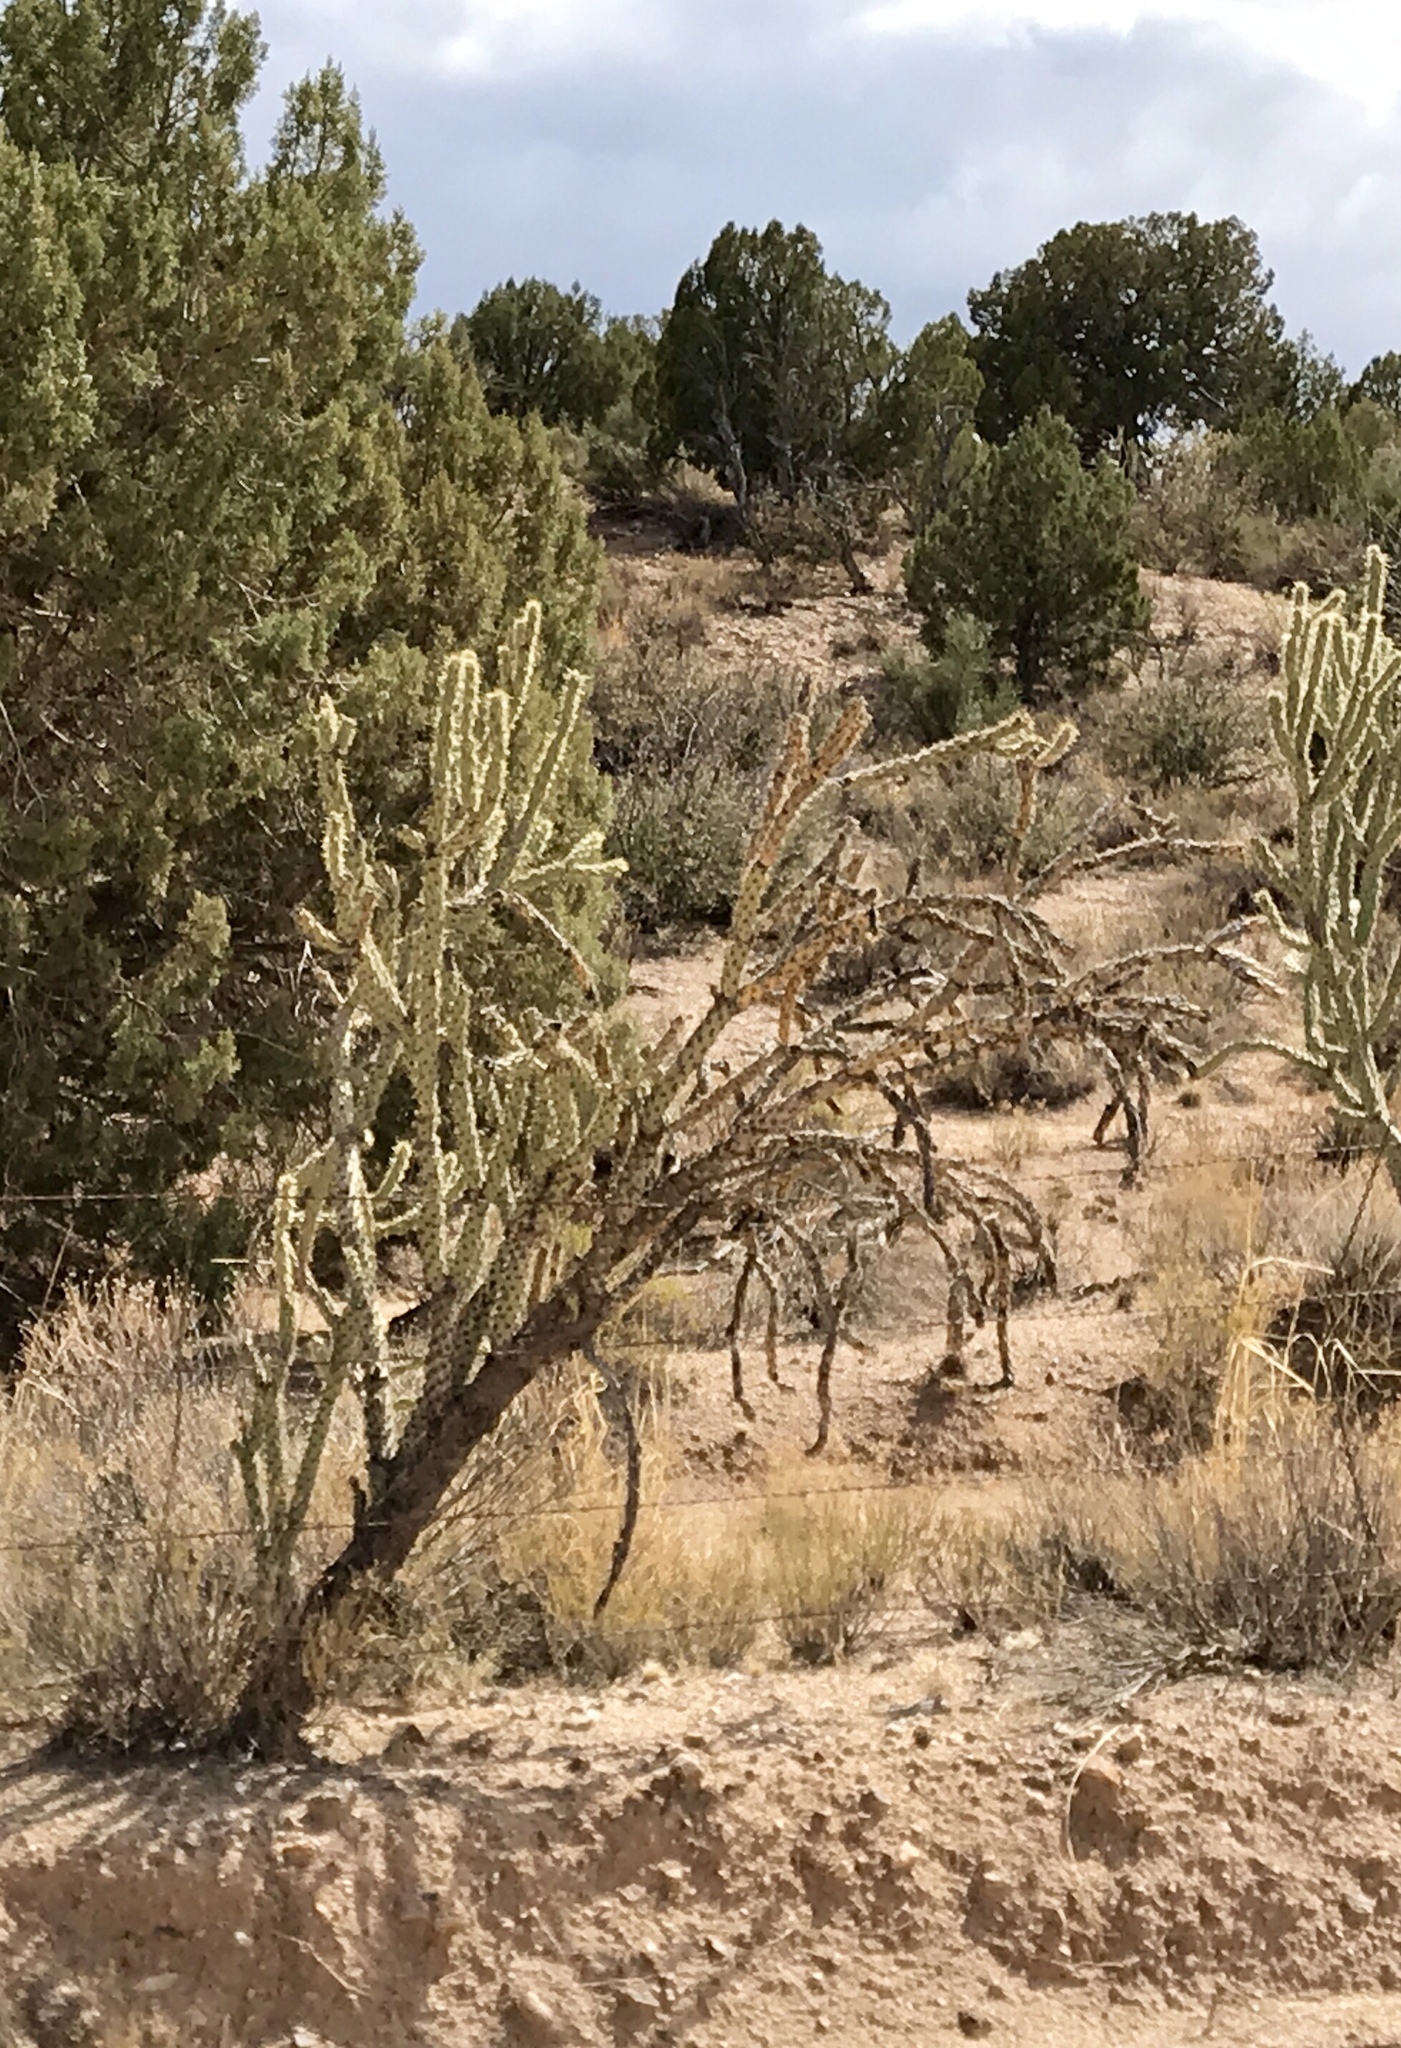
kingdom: Plantae
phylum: Tracheophyta
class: Magnoliopsida
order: Caryophyllales
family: Cactaceae
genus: Cylindropuntia
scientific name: Cylindropuntia acanthocarpa
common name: Buckhorn cholla
